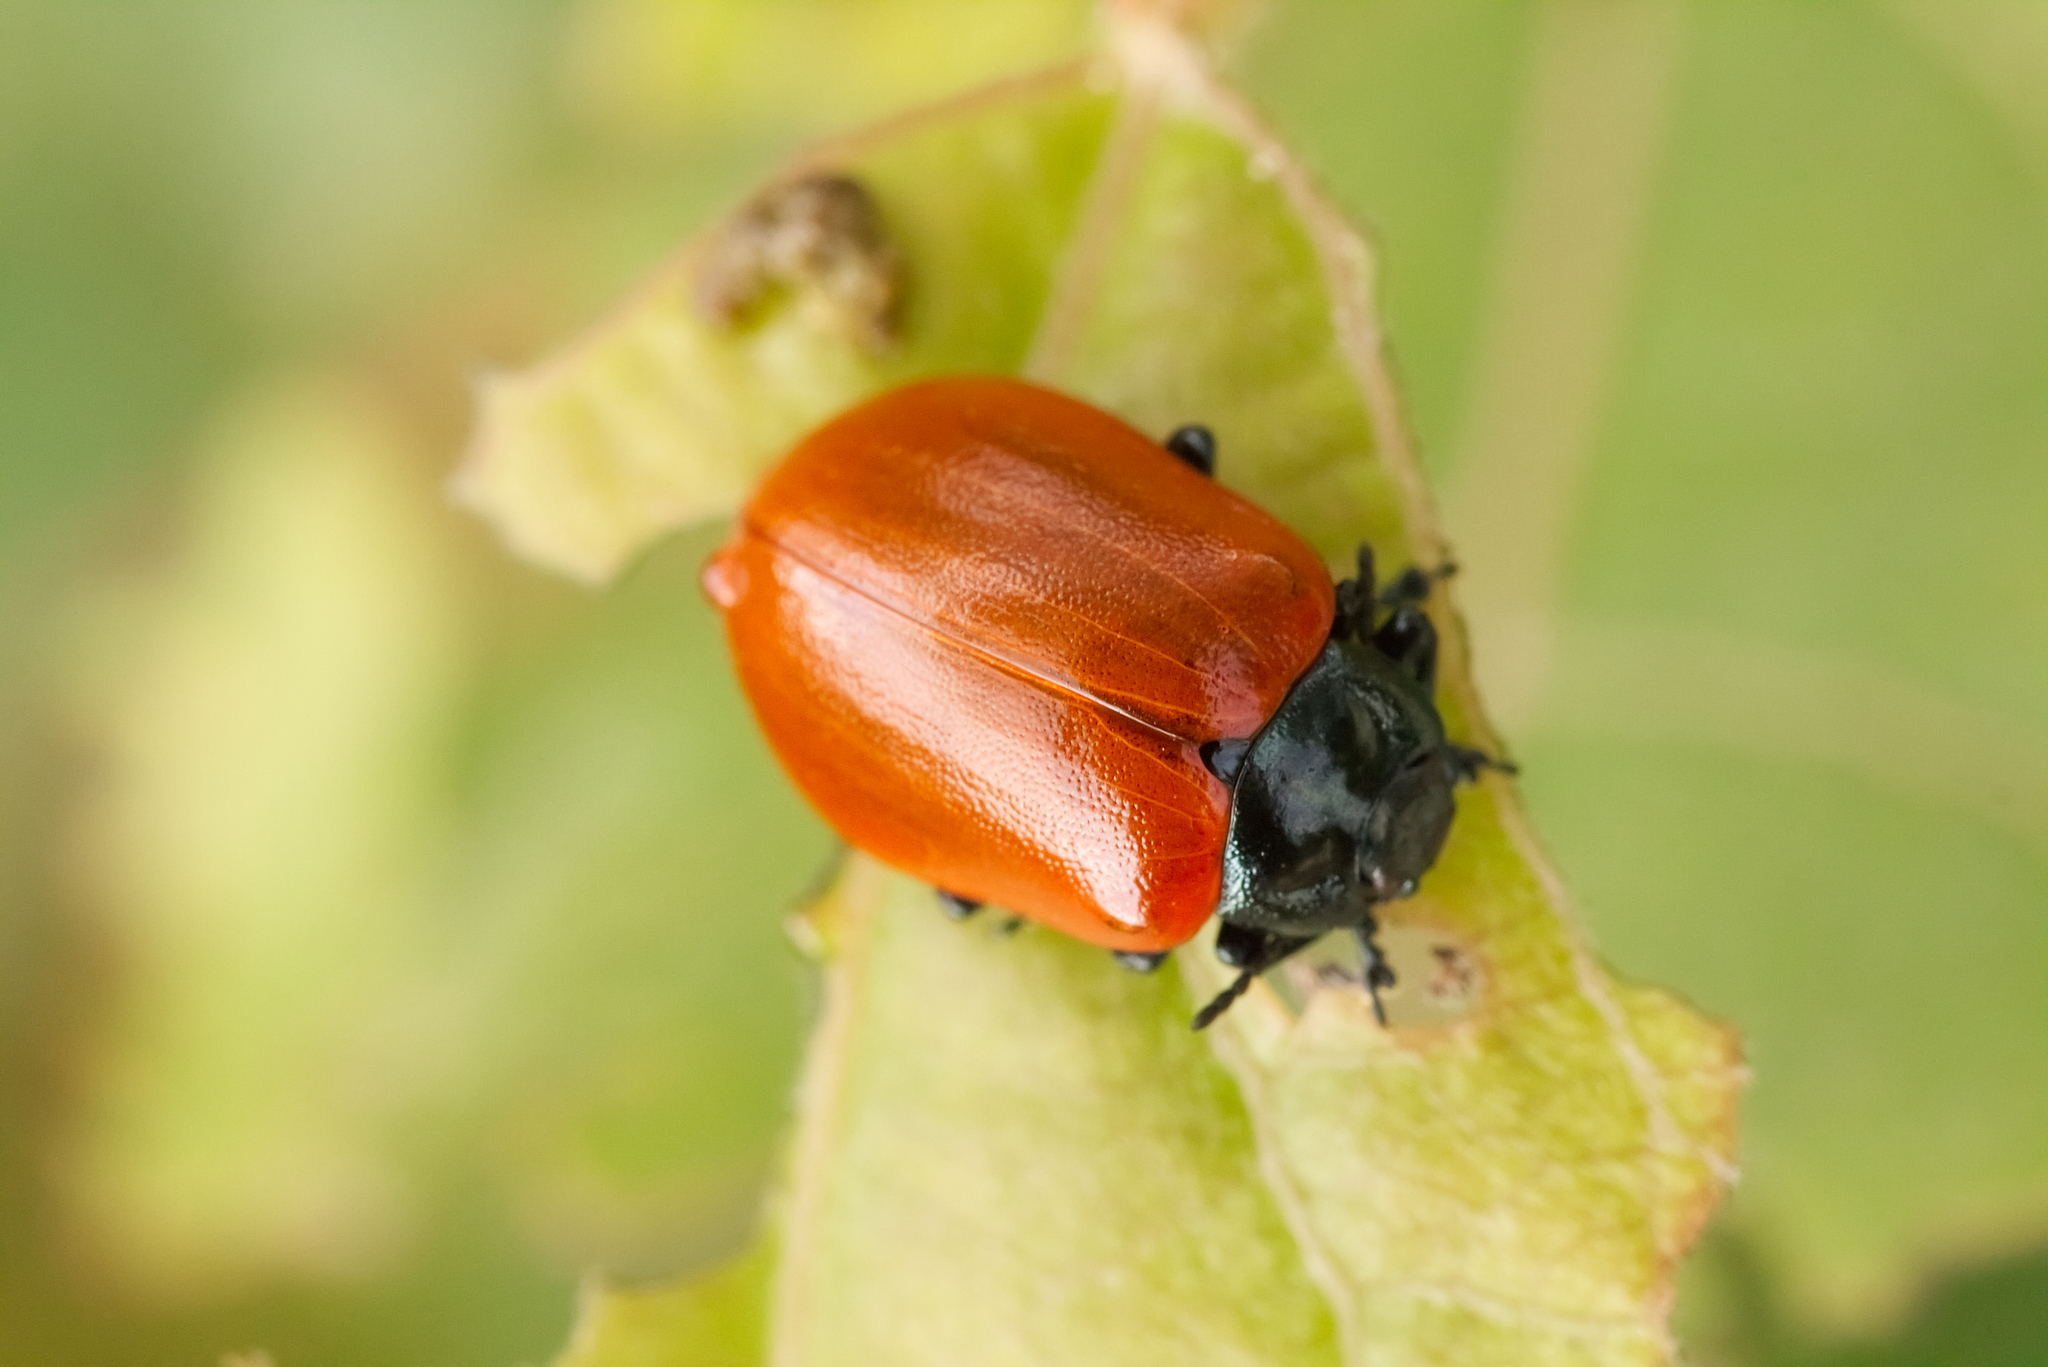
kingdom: Animalia
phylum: Arthropoda
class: Insecta
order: Coleoptera
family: Chrysomelidae
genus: Chrysomela
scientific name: Chrysomela populi
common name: Red poplar leaf beetle
